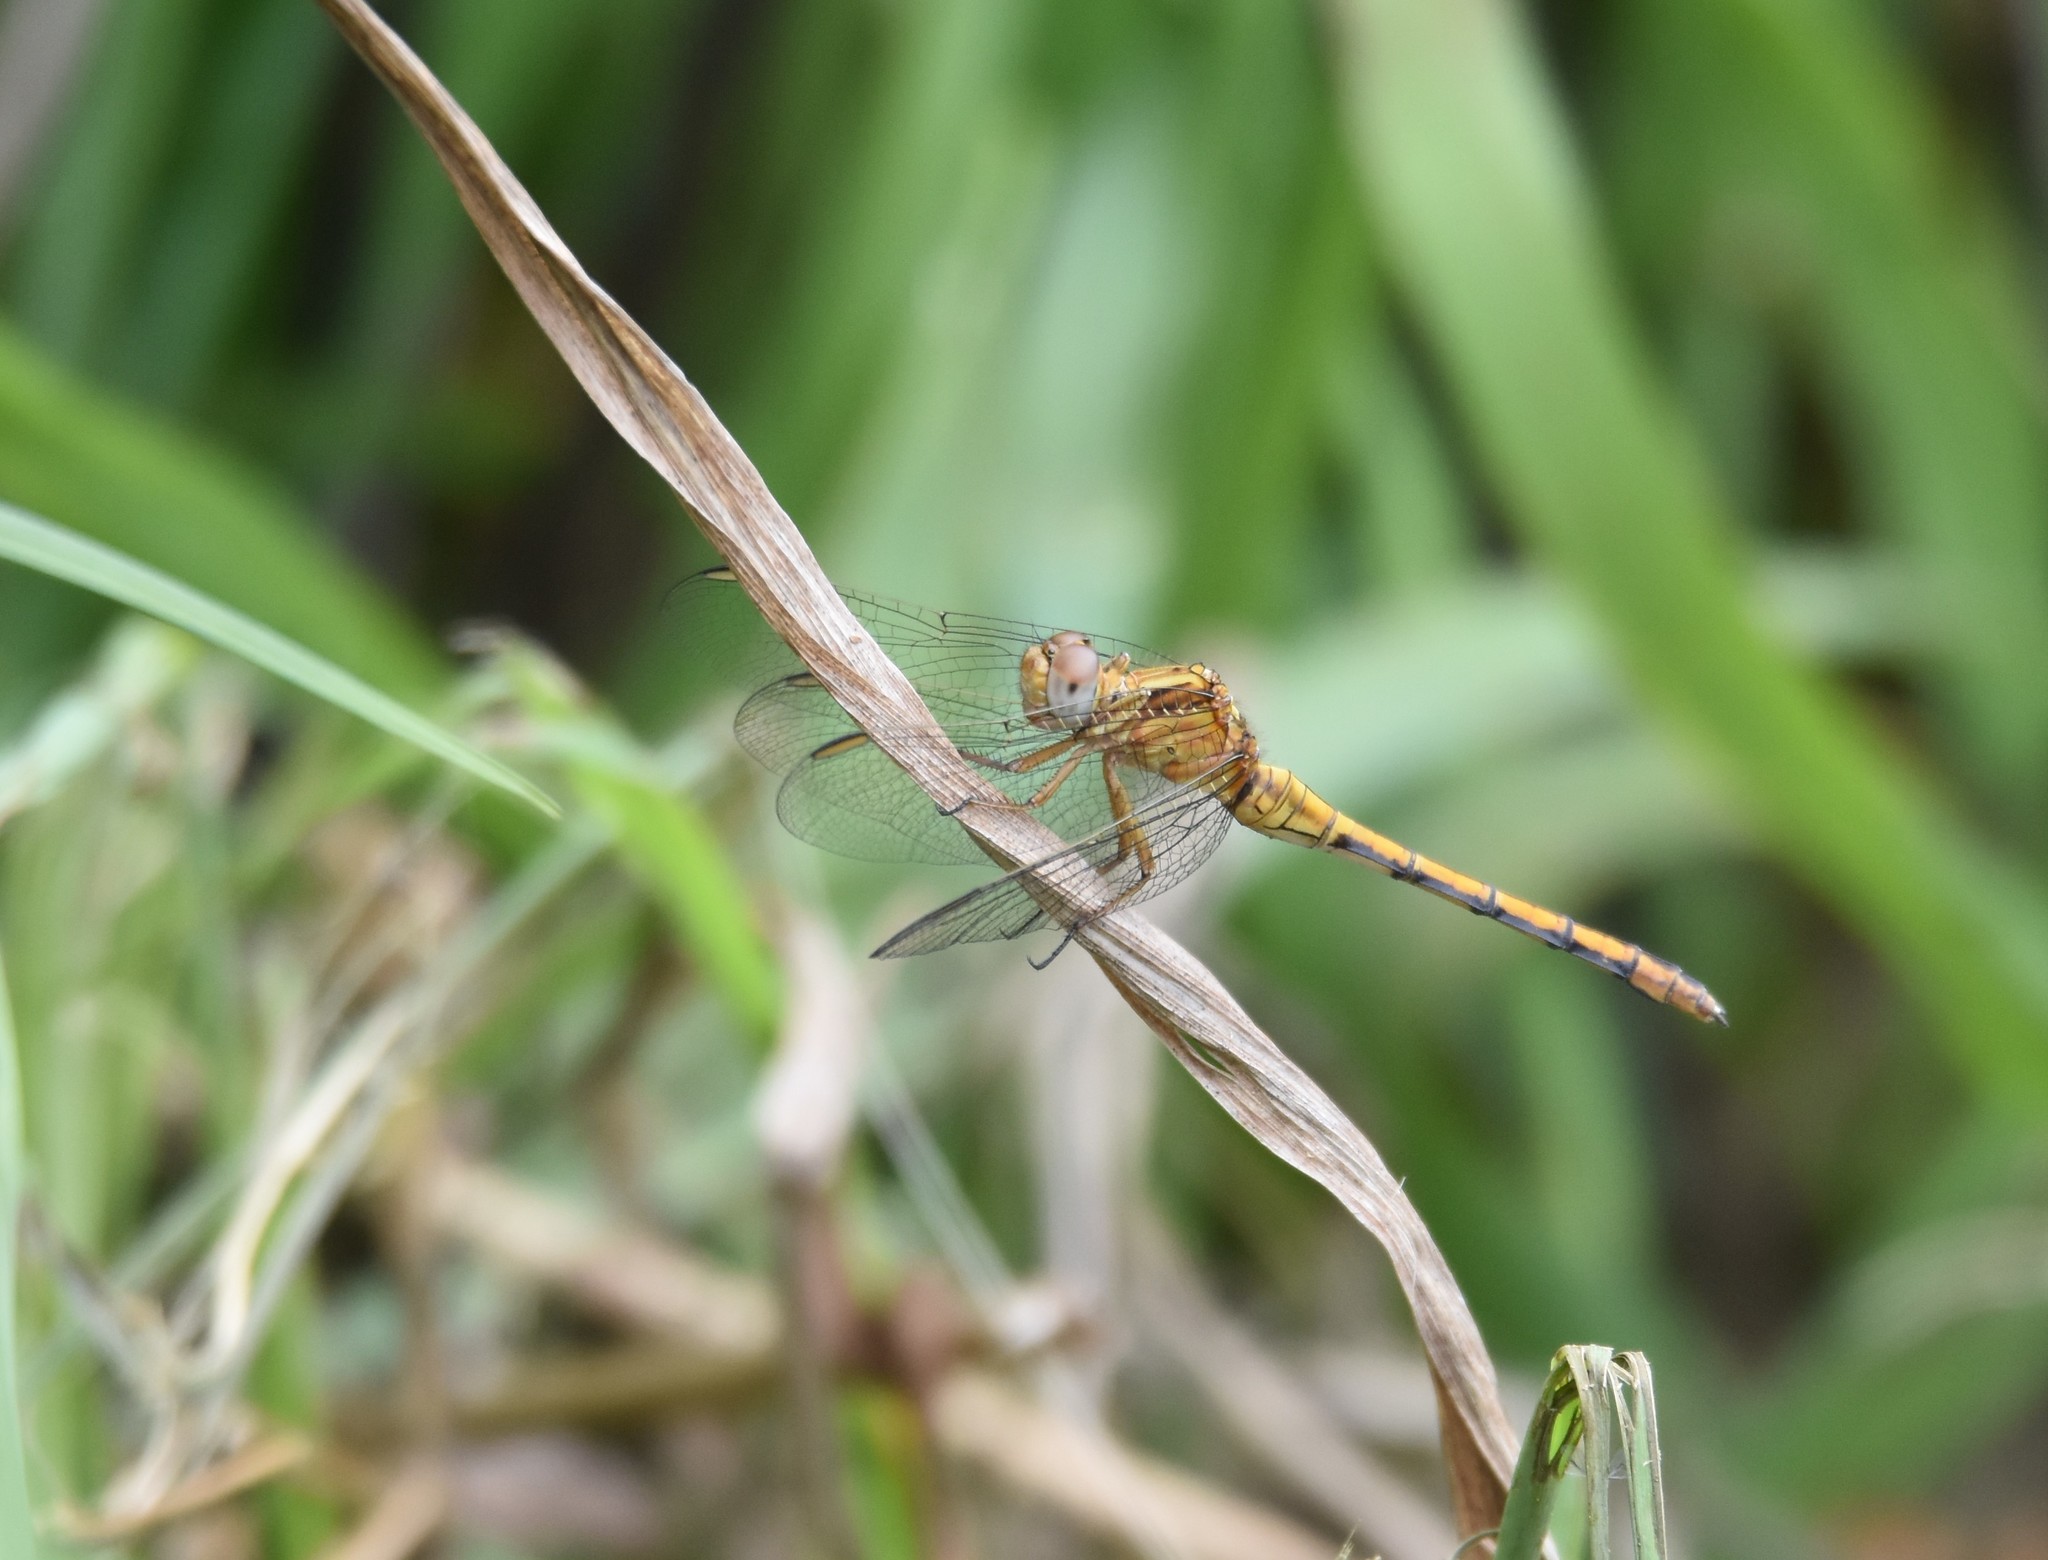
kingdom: Animalia
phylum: Arthropoda
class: Insecta
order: Odonata
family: Libellulidae
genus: Orthetrum
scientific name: Orthetrum machadoi
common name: Highland skimmer
